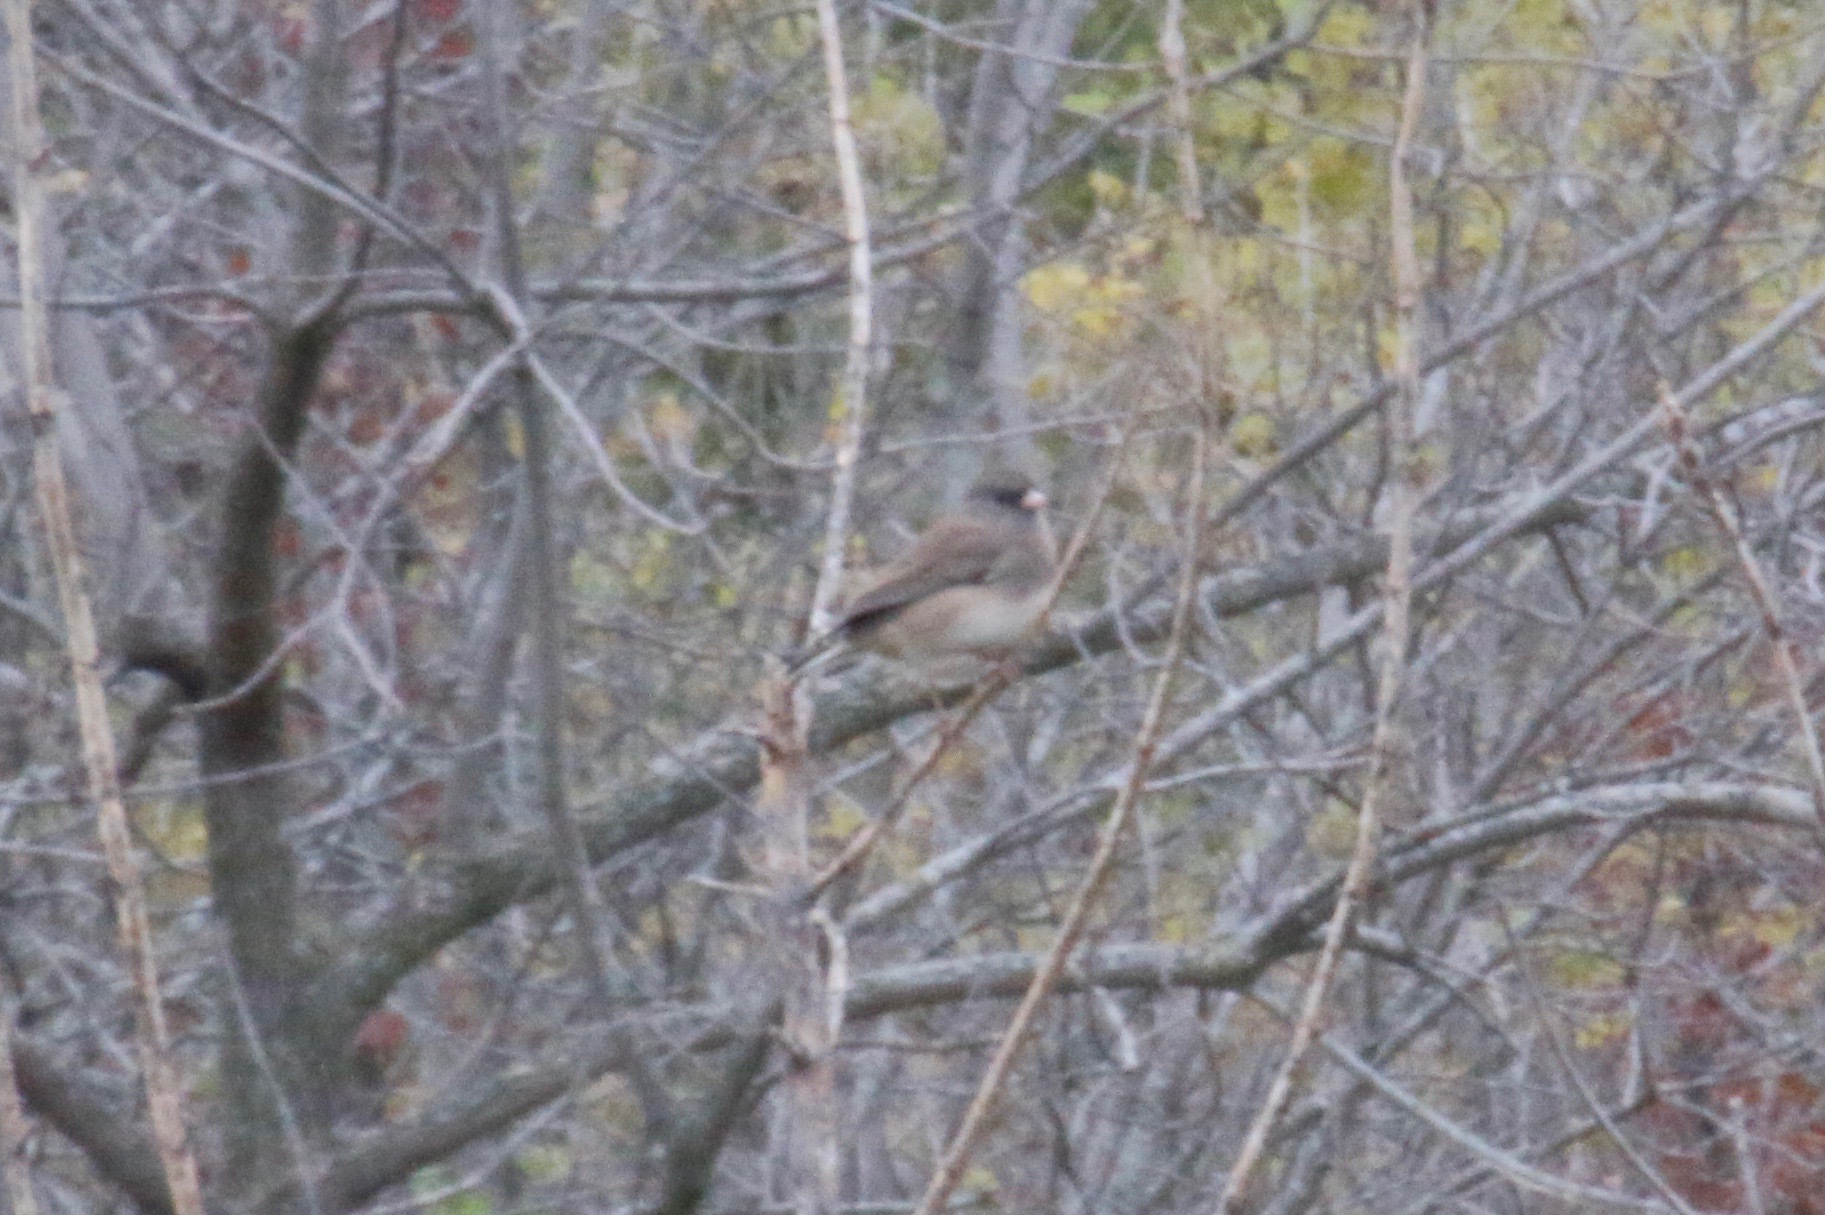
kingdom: Animalia
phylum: Chordata
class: Aves
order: Passeriformes
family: Passerellidae
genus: Junco
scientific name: Junco hyemalis
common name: Dark-eyed junco
